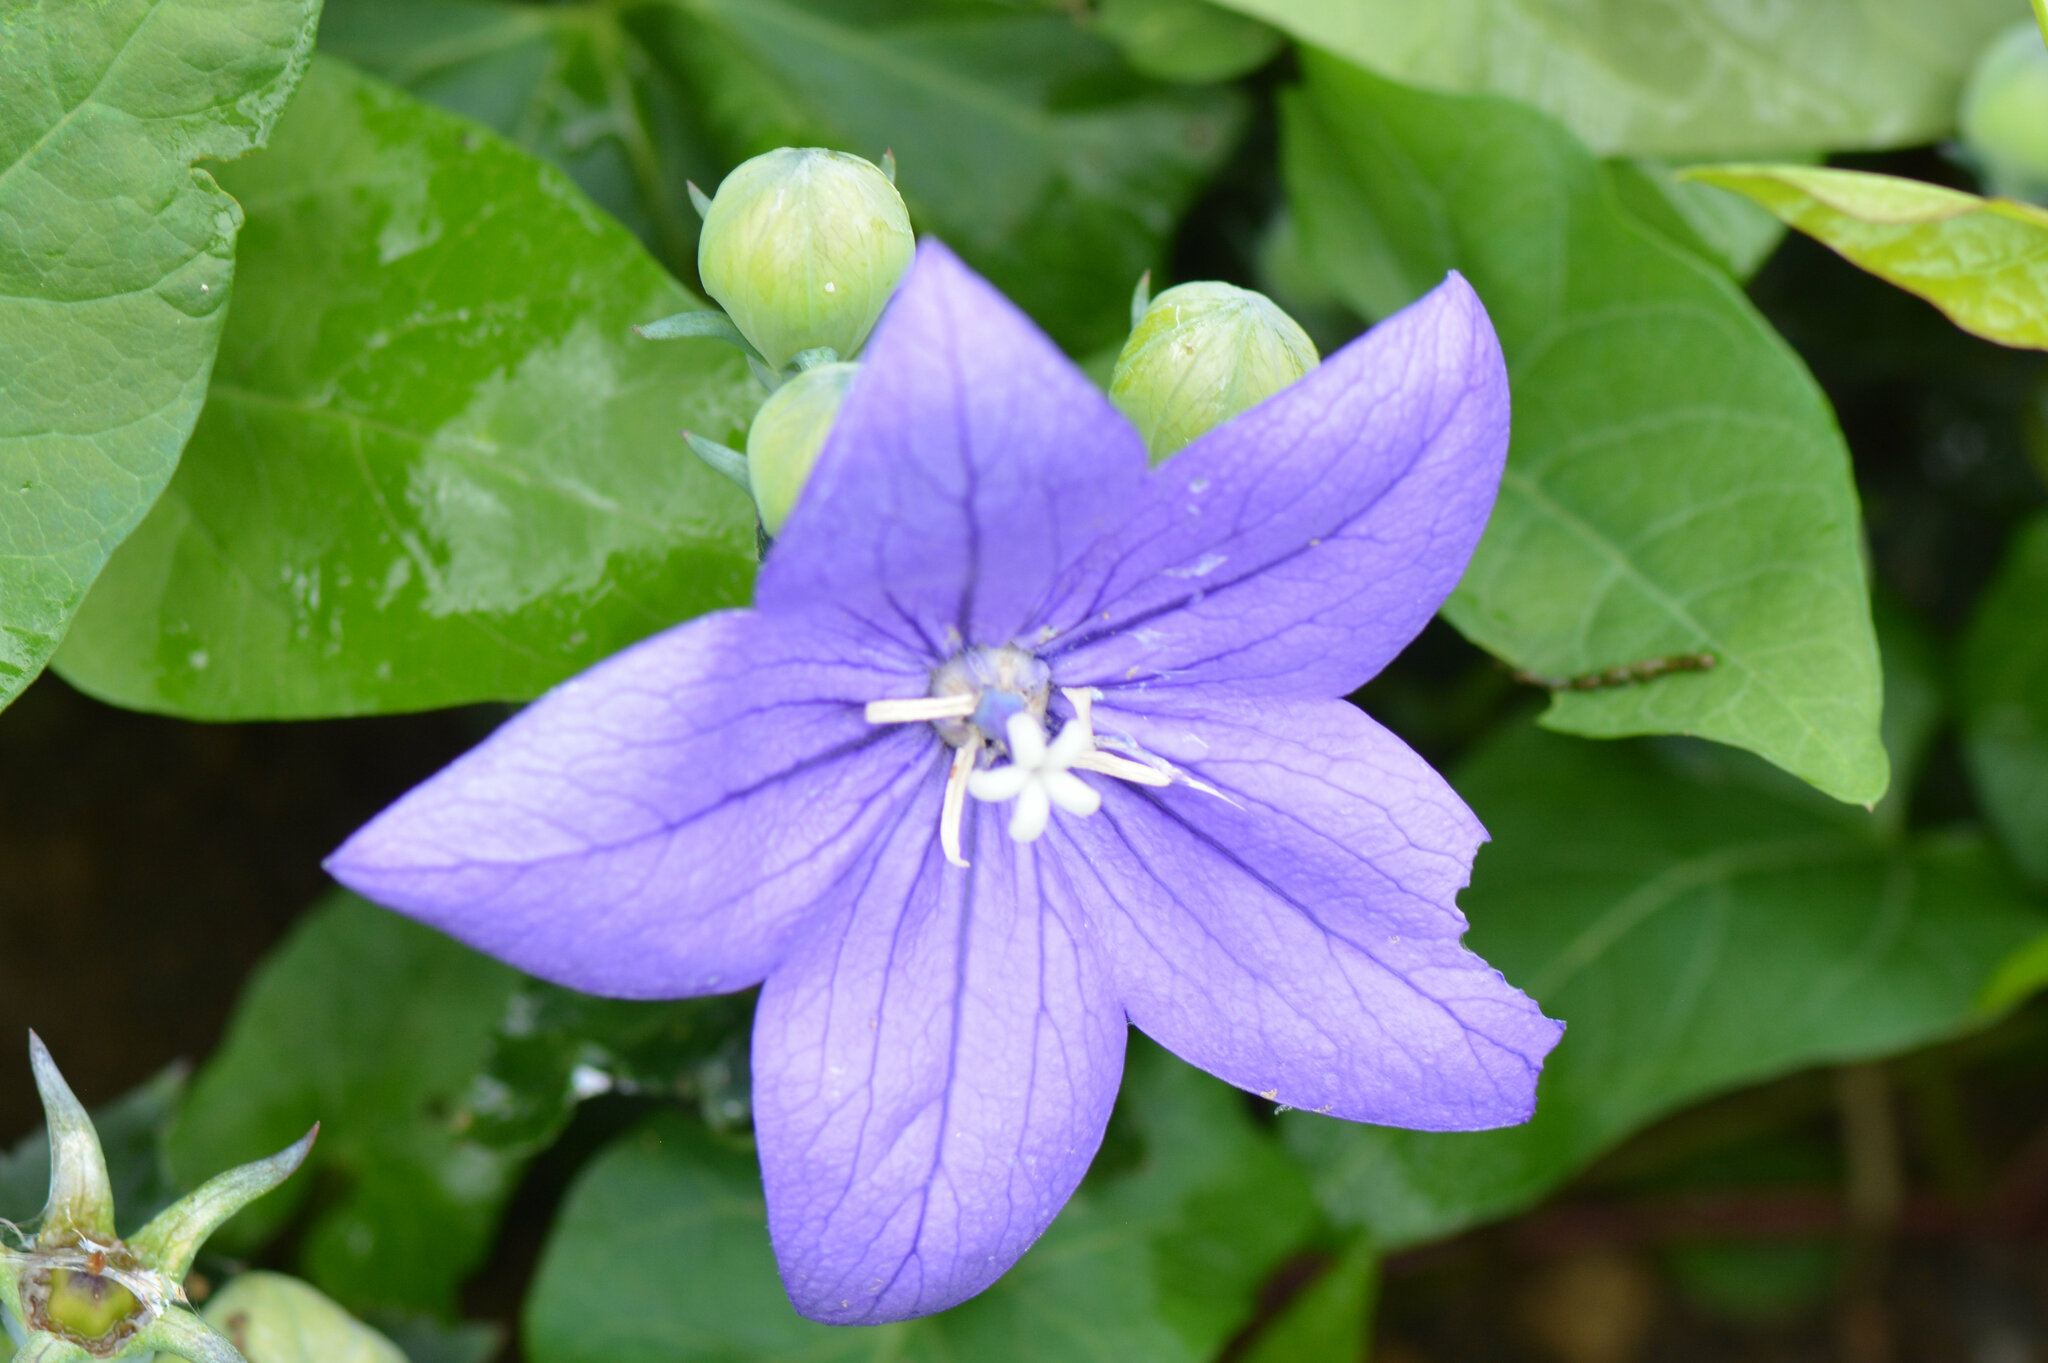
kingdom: Plantae
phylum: Tracheophyta
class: Magnoliopsida
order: Asterales
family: Campanulaceae
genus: Platycodon
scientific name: Platycodon grandiflorus
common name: Balloon-flower
